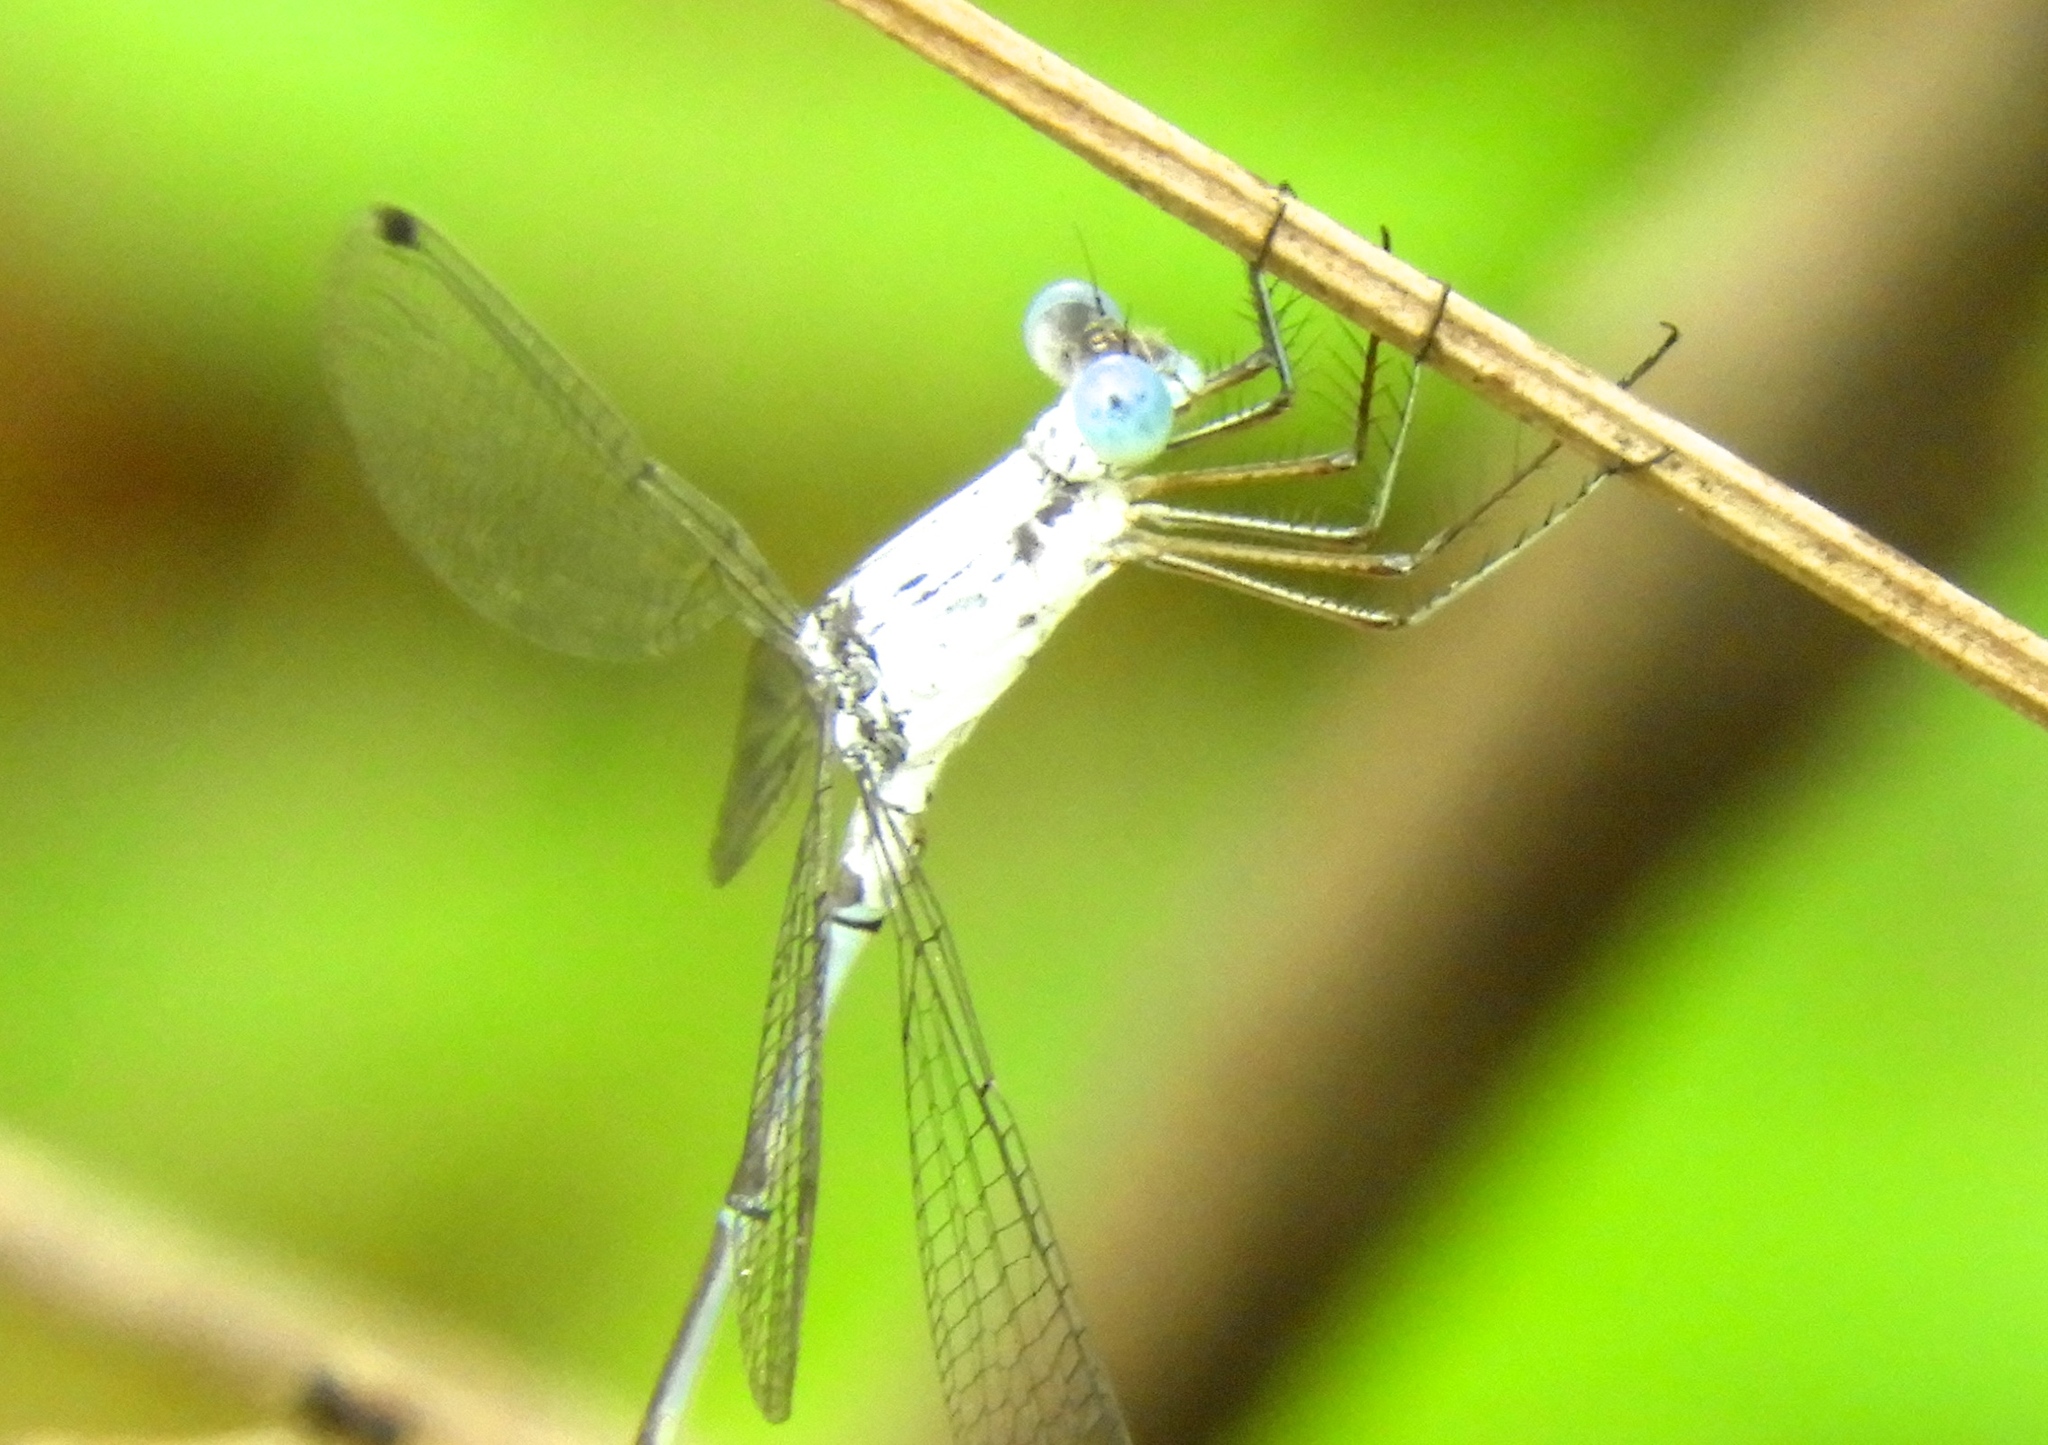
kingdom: Animalia
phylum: Arthropoda
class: Insecta
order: Odonata
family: Lestidae
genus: Lestes
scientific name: Lestes sigma
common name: Chalky spreadwing
